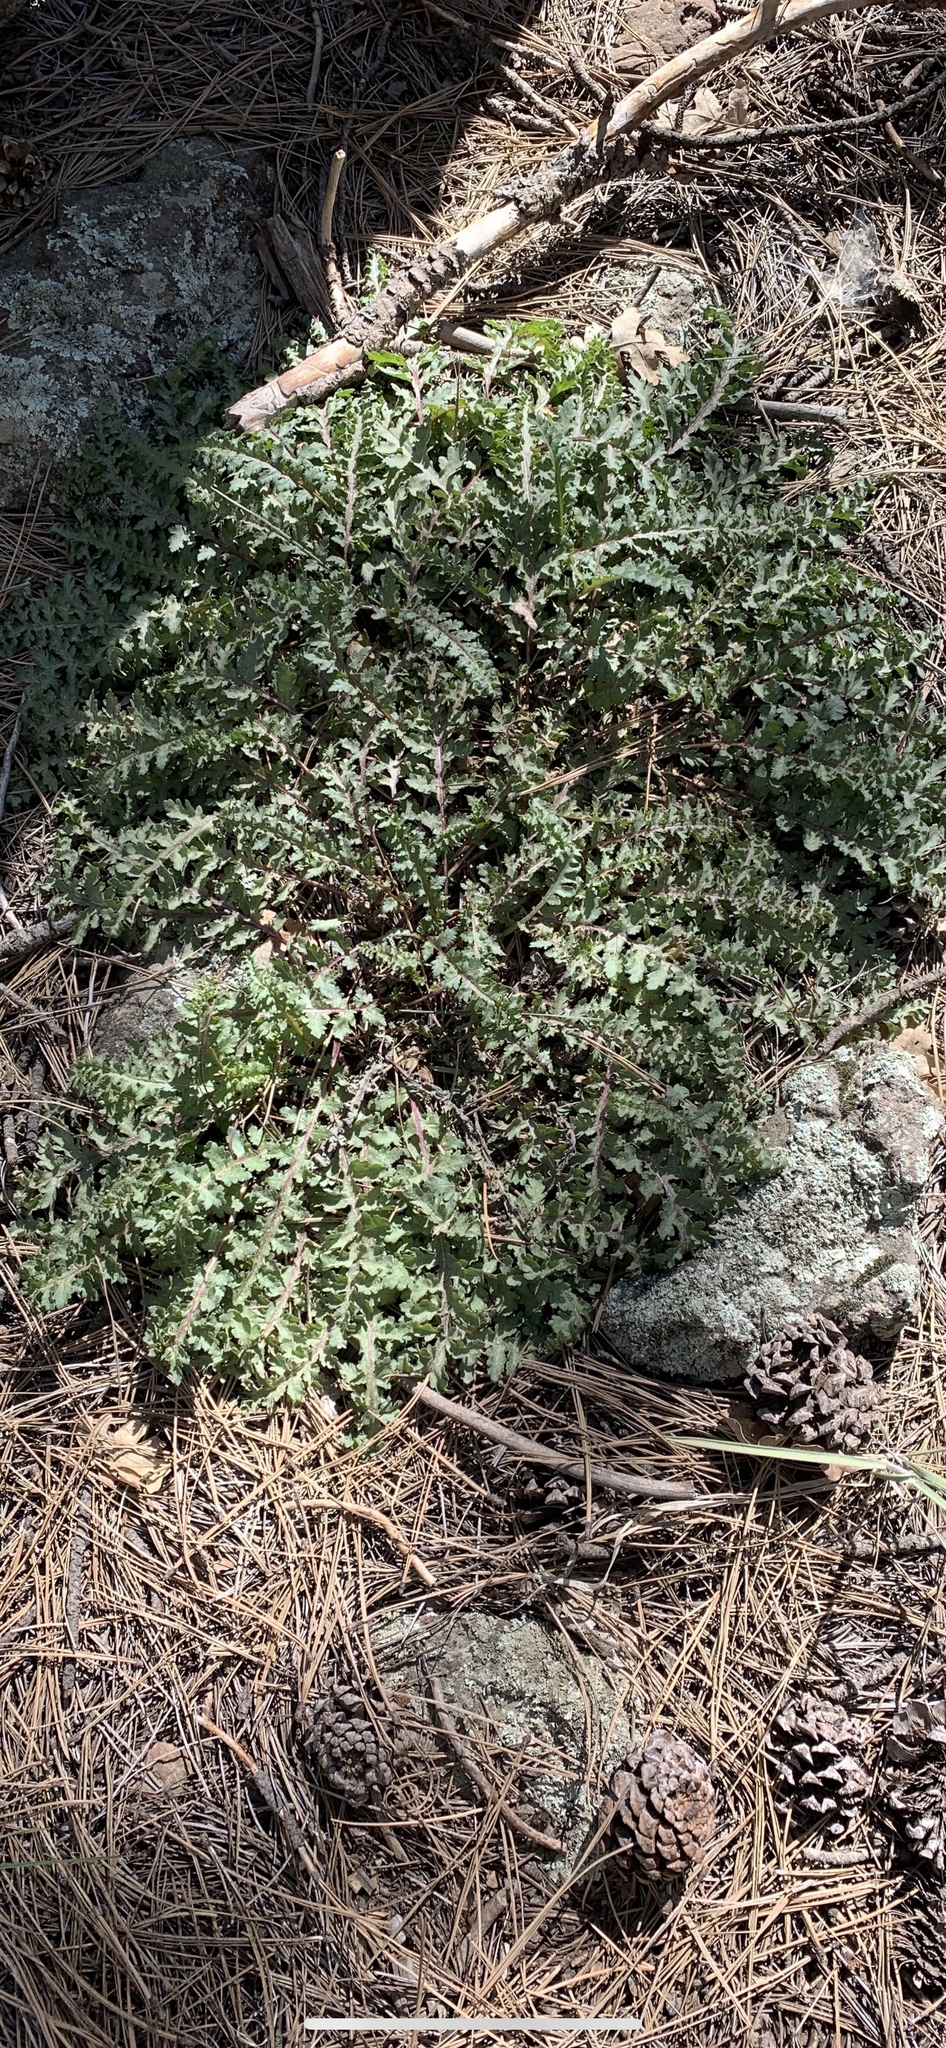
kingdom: Plantae
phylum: Tracheophyta
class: Magnoliopsida
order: Lamiales
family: Orobanchaceae
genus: Pedicularis
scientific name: Pedicularis centranthera
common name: Dwarf lousewort
